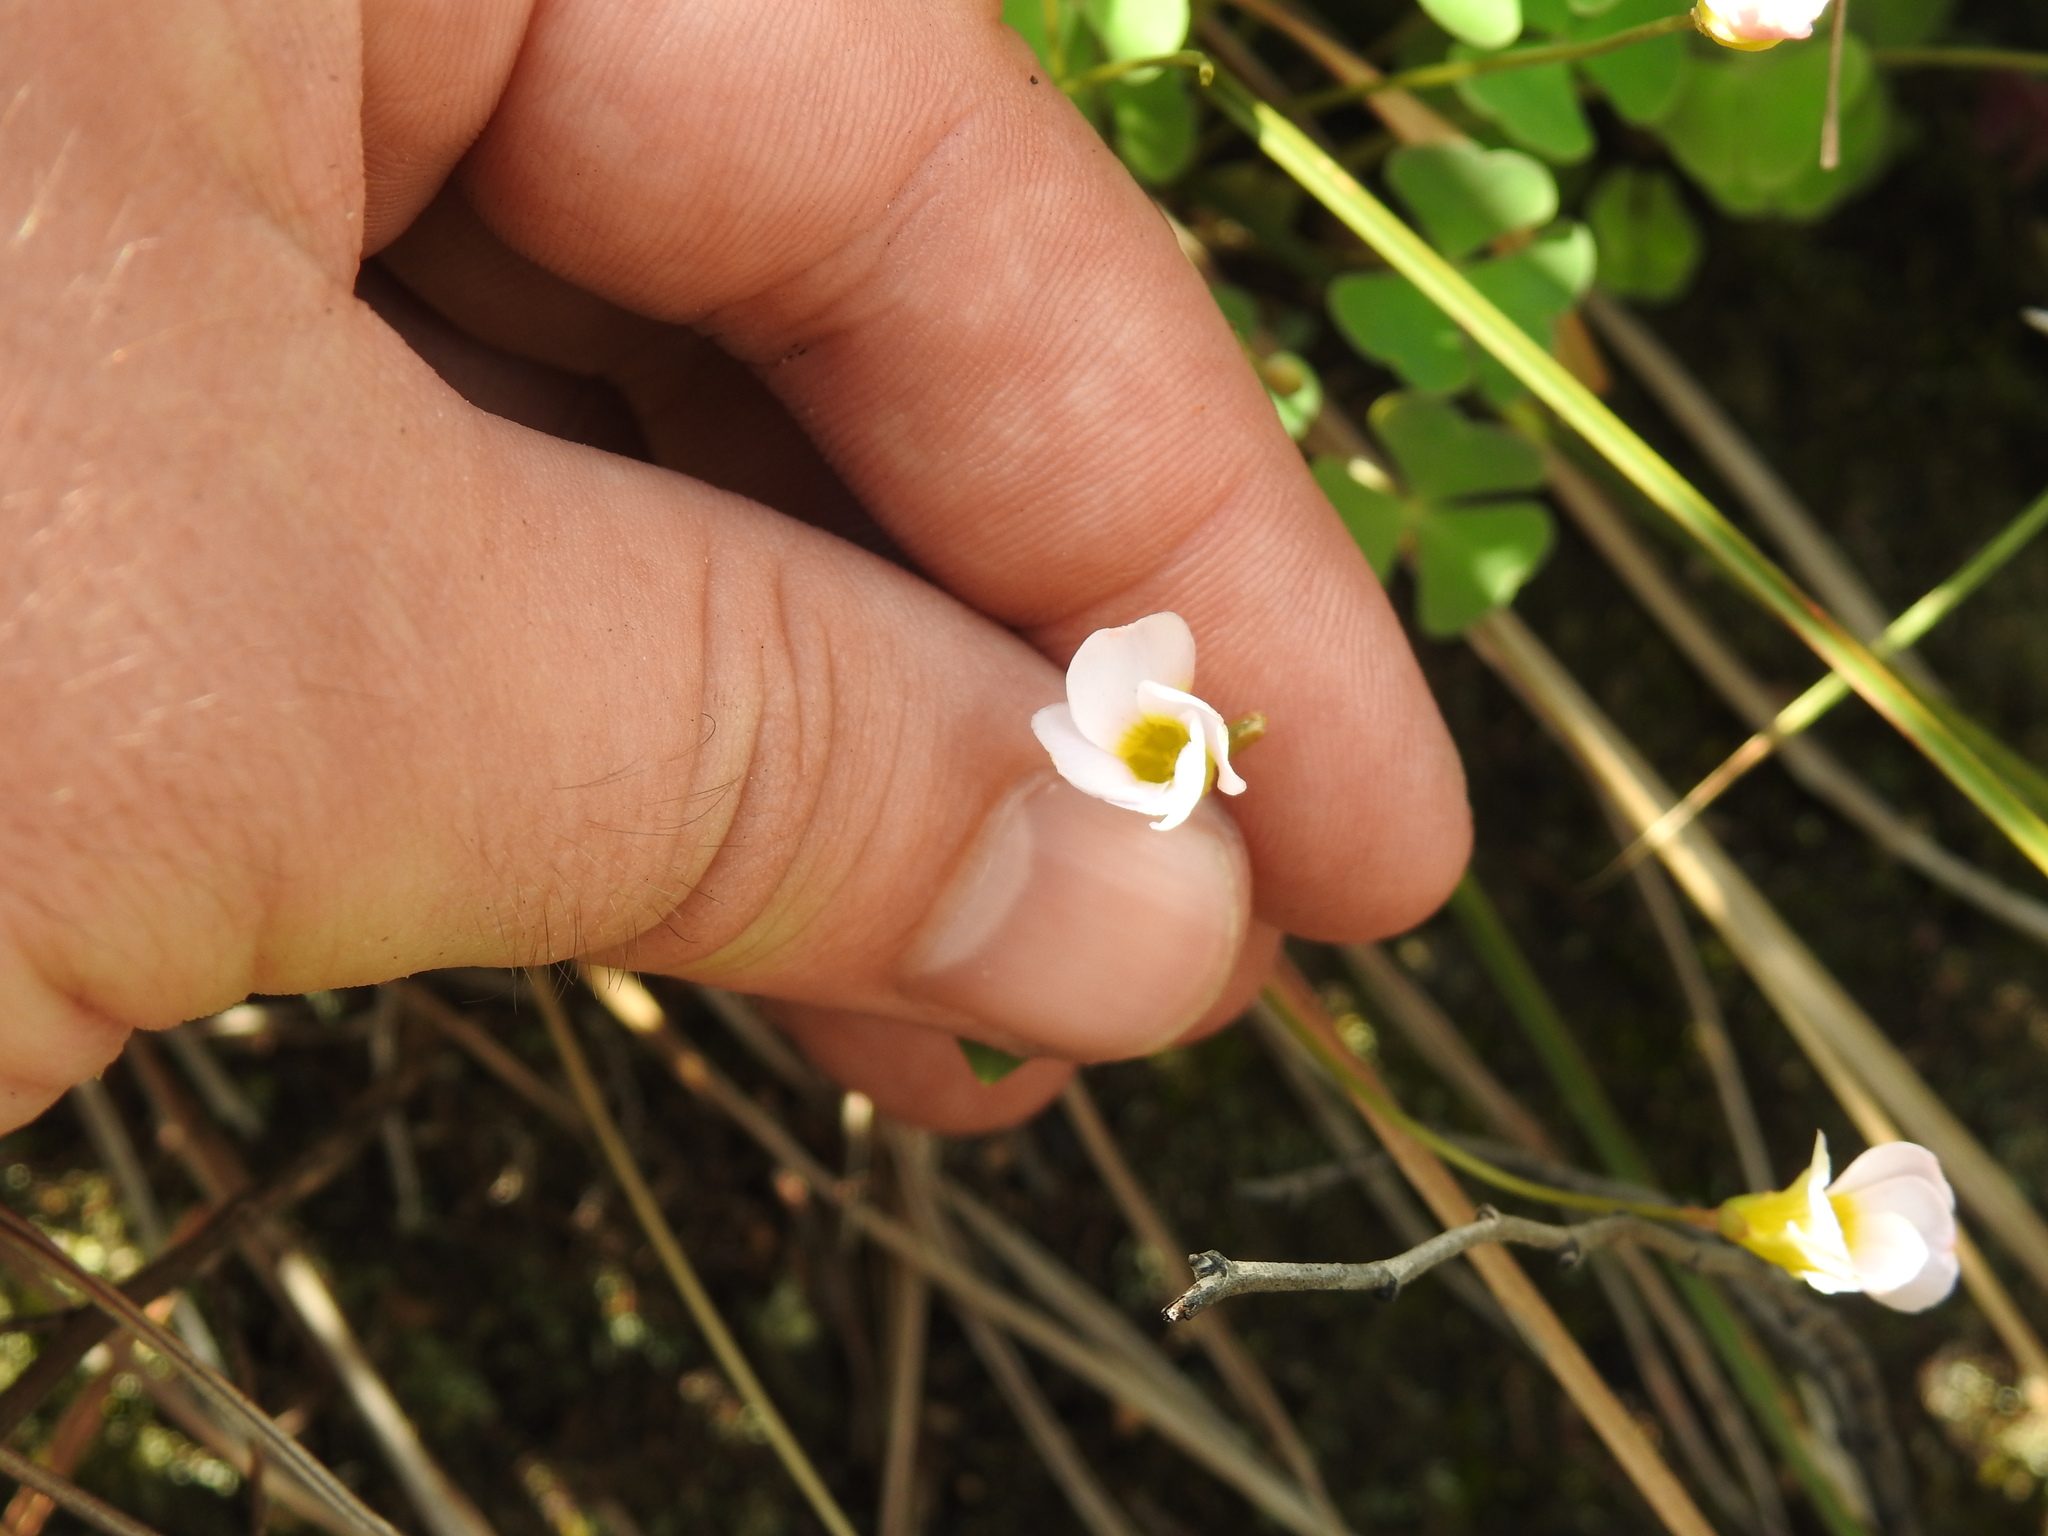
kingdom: Plantae
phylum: Tracheophyta
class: Magnoliopsida
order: Oxalidales
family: Oxalidaceae
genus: Oxalis
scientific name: Oxalis obliquifolia
